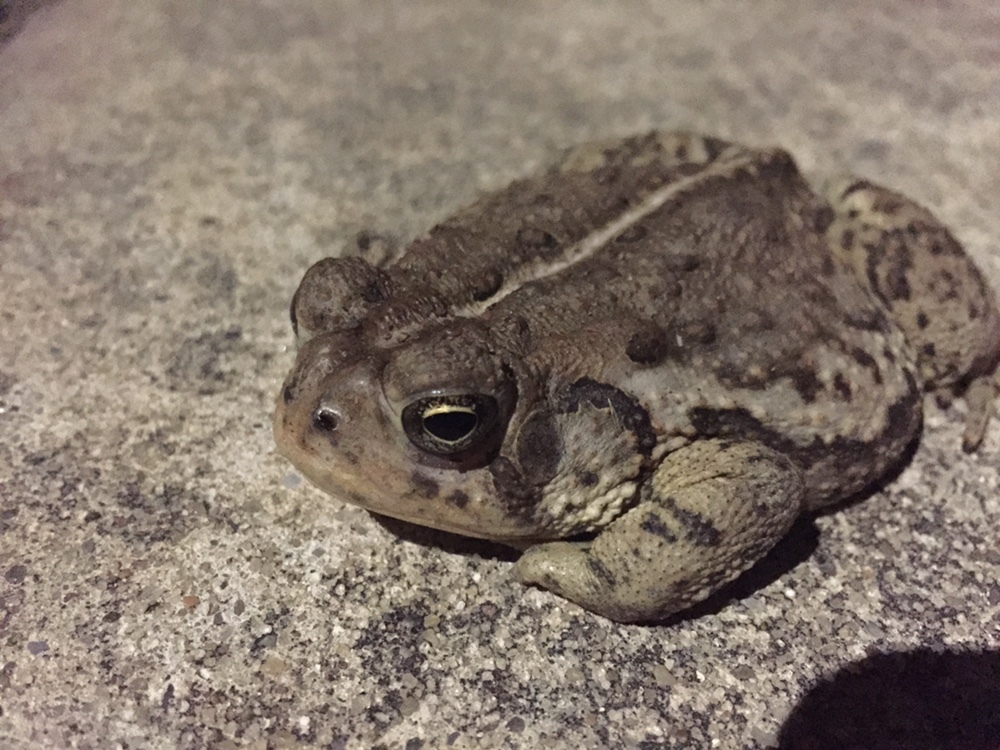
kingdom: Animalia
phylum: Chordata
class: Amphibia
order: Anura
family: Bufonidae
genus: Anaxyrus
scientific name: Anaxyrus woodhousii
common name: Woodhouse's toad
